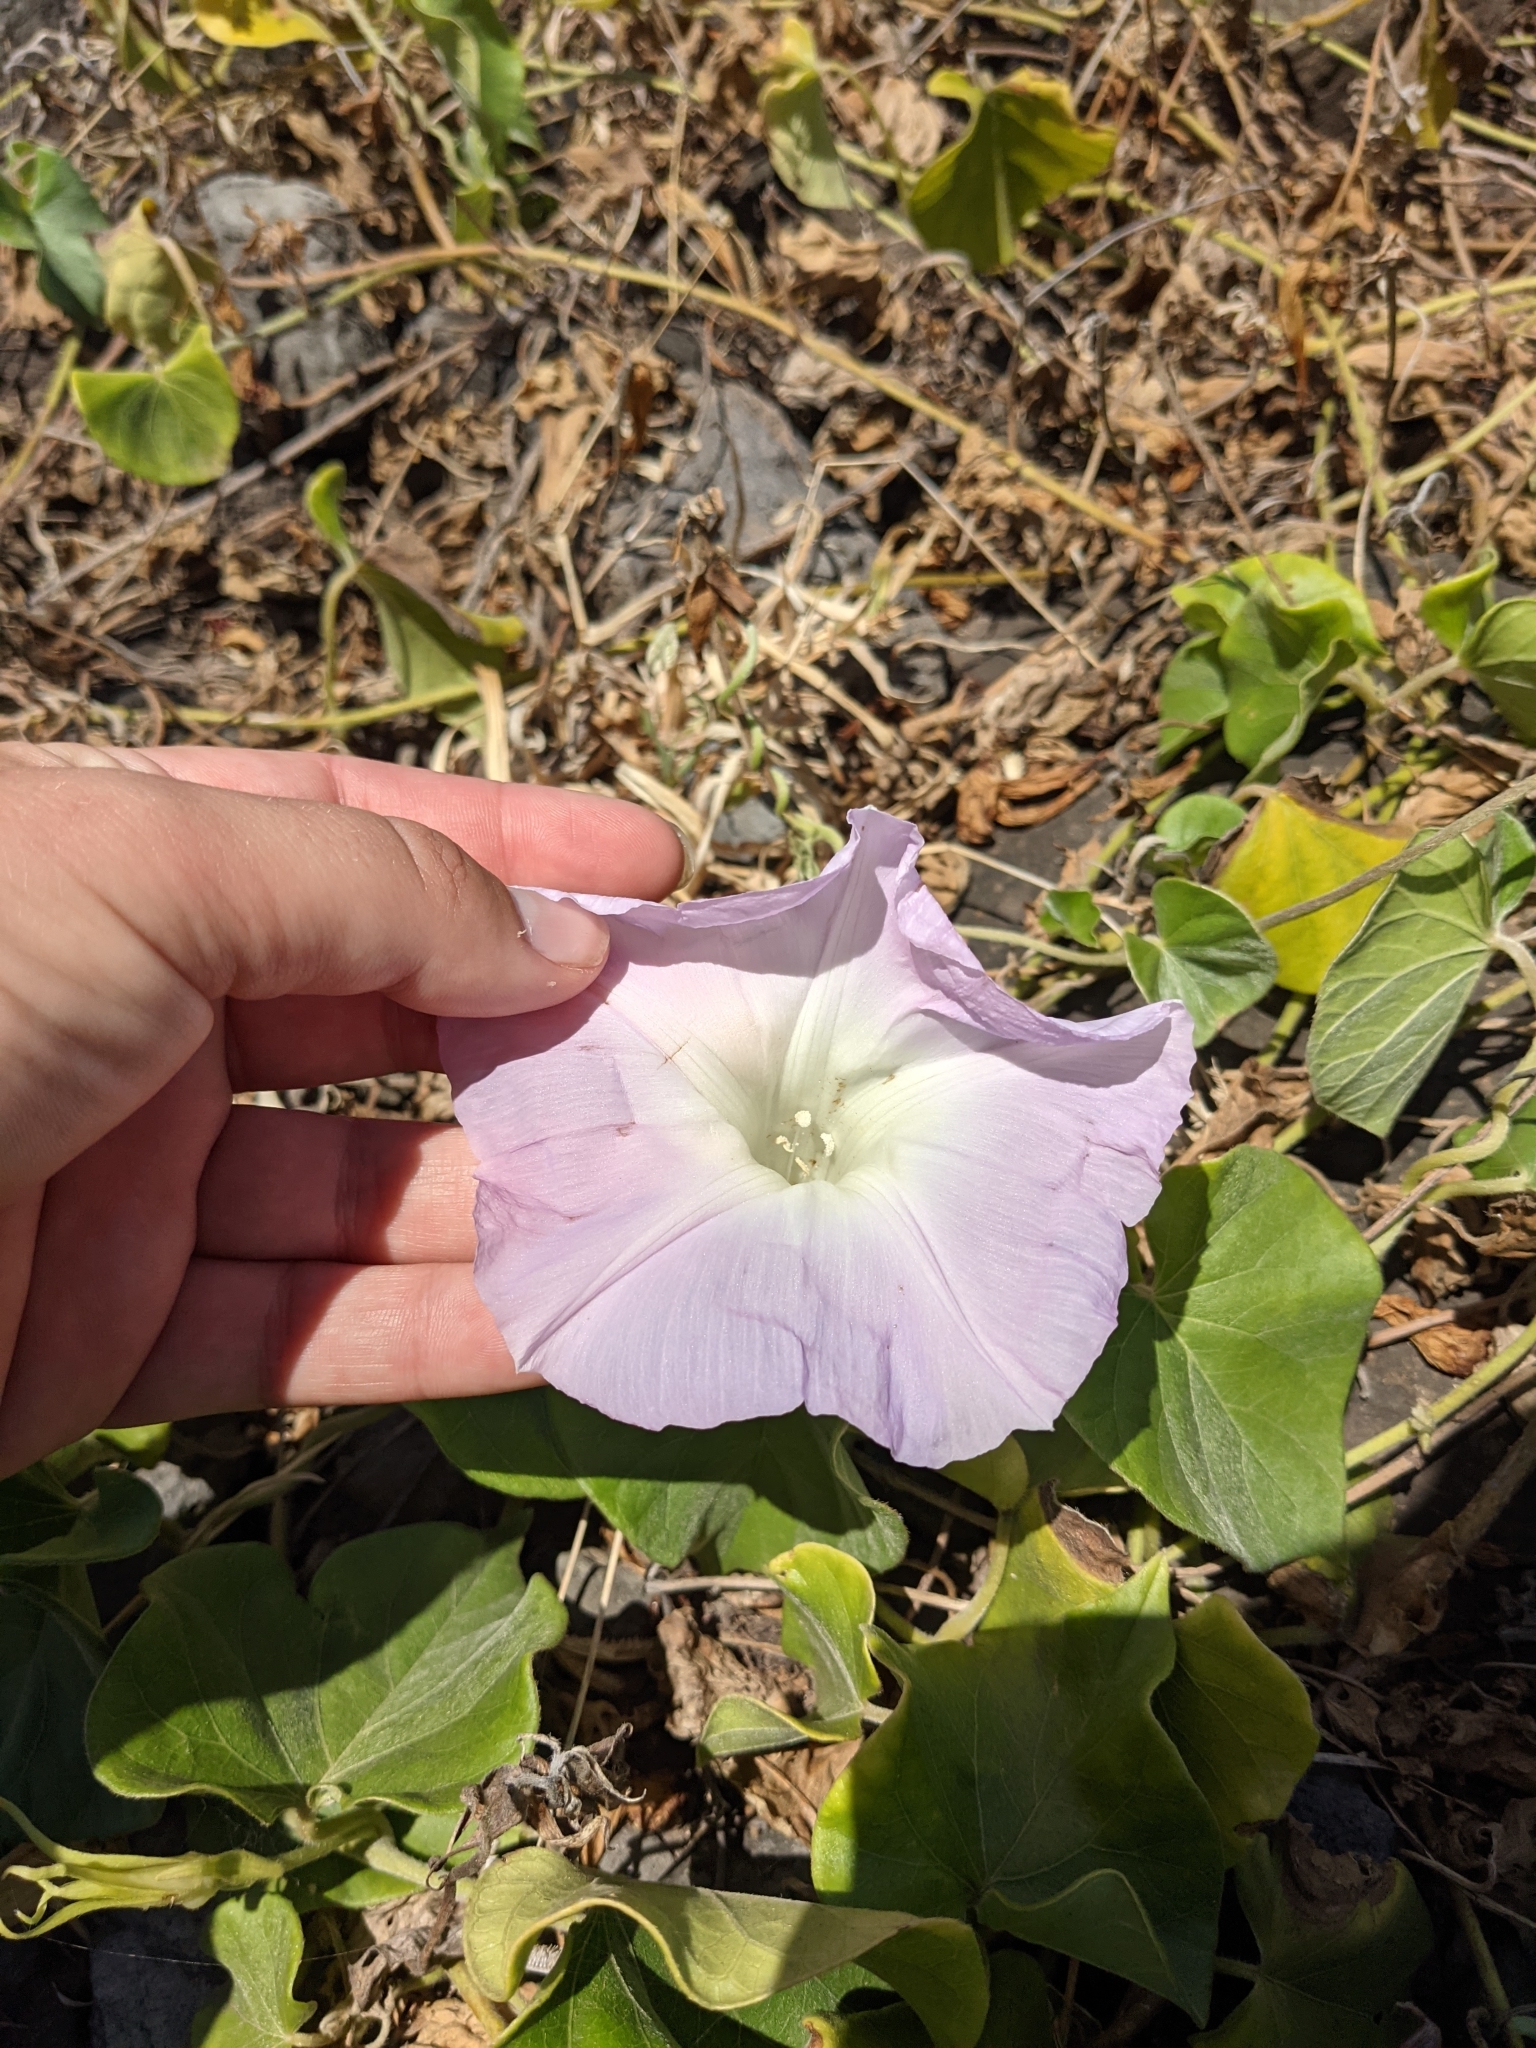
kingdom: Plantae
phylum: Tracheophyta
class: Magnoliopsida
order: Solanales
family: Convolvulaceae
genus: Ipomoea
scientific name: Ipomoea indica
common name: Blue dawnflower
